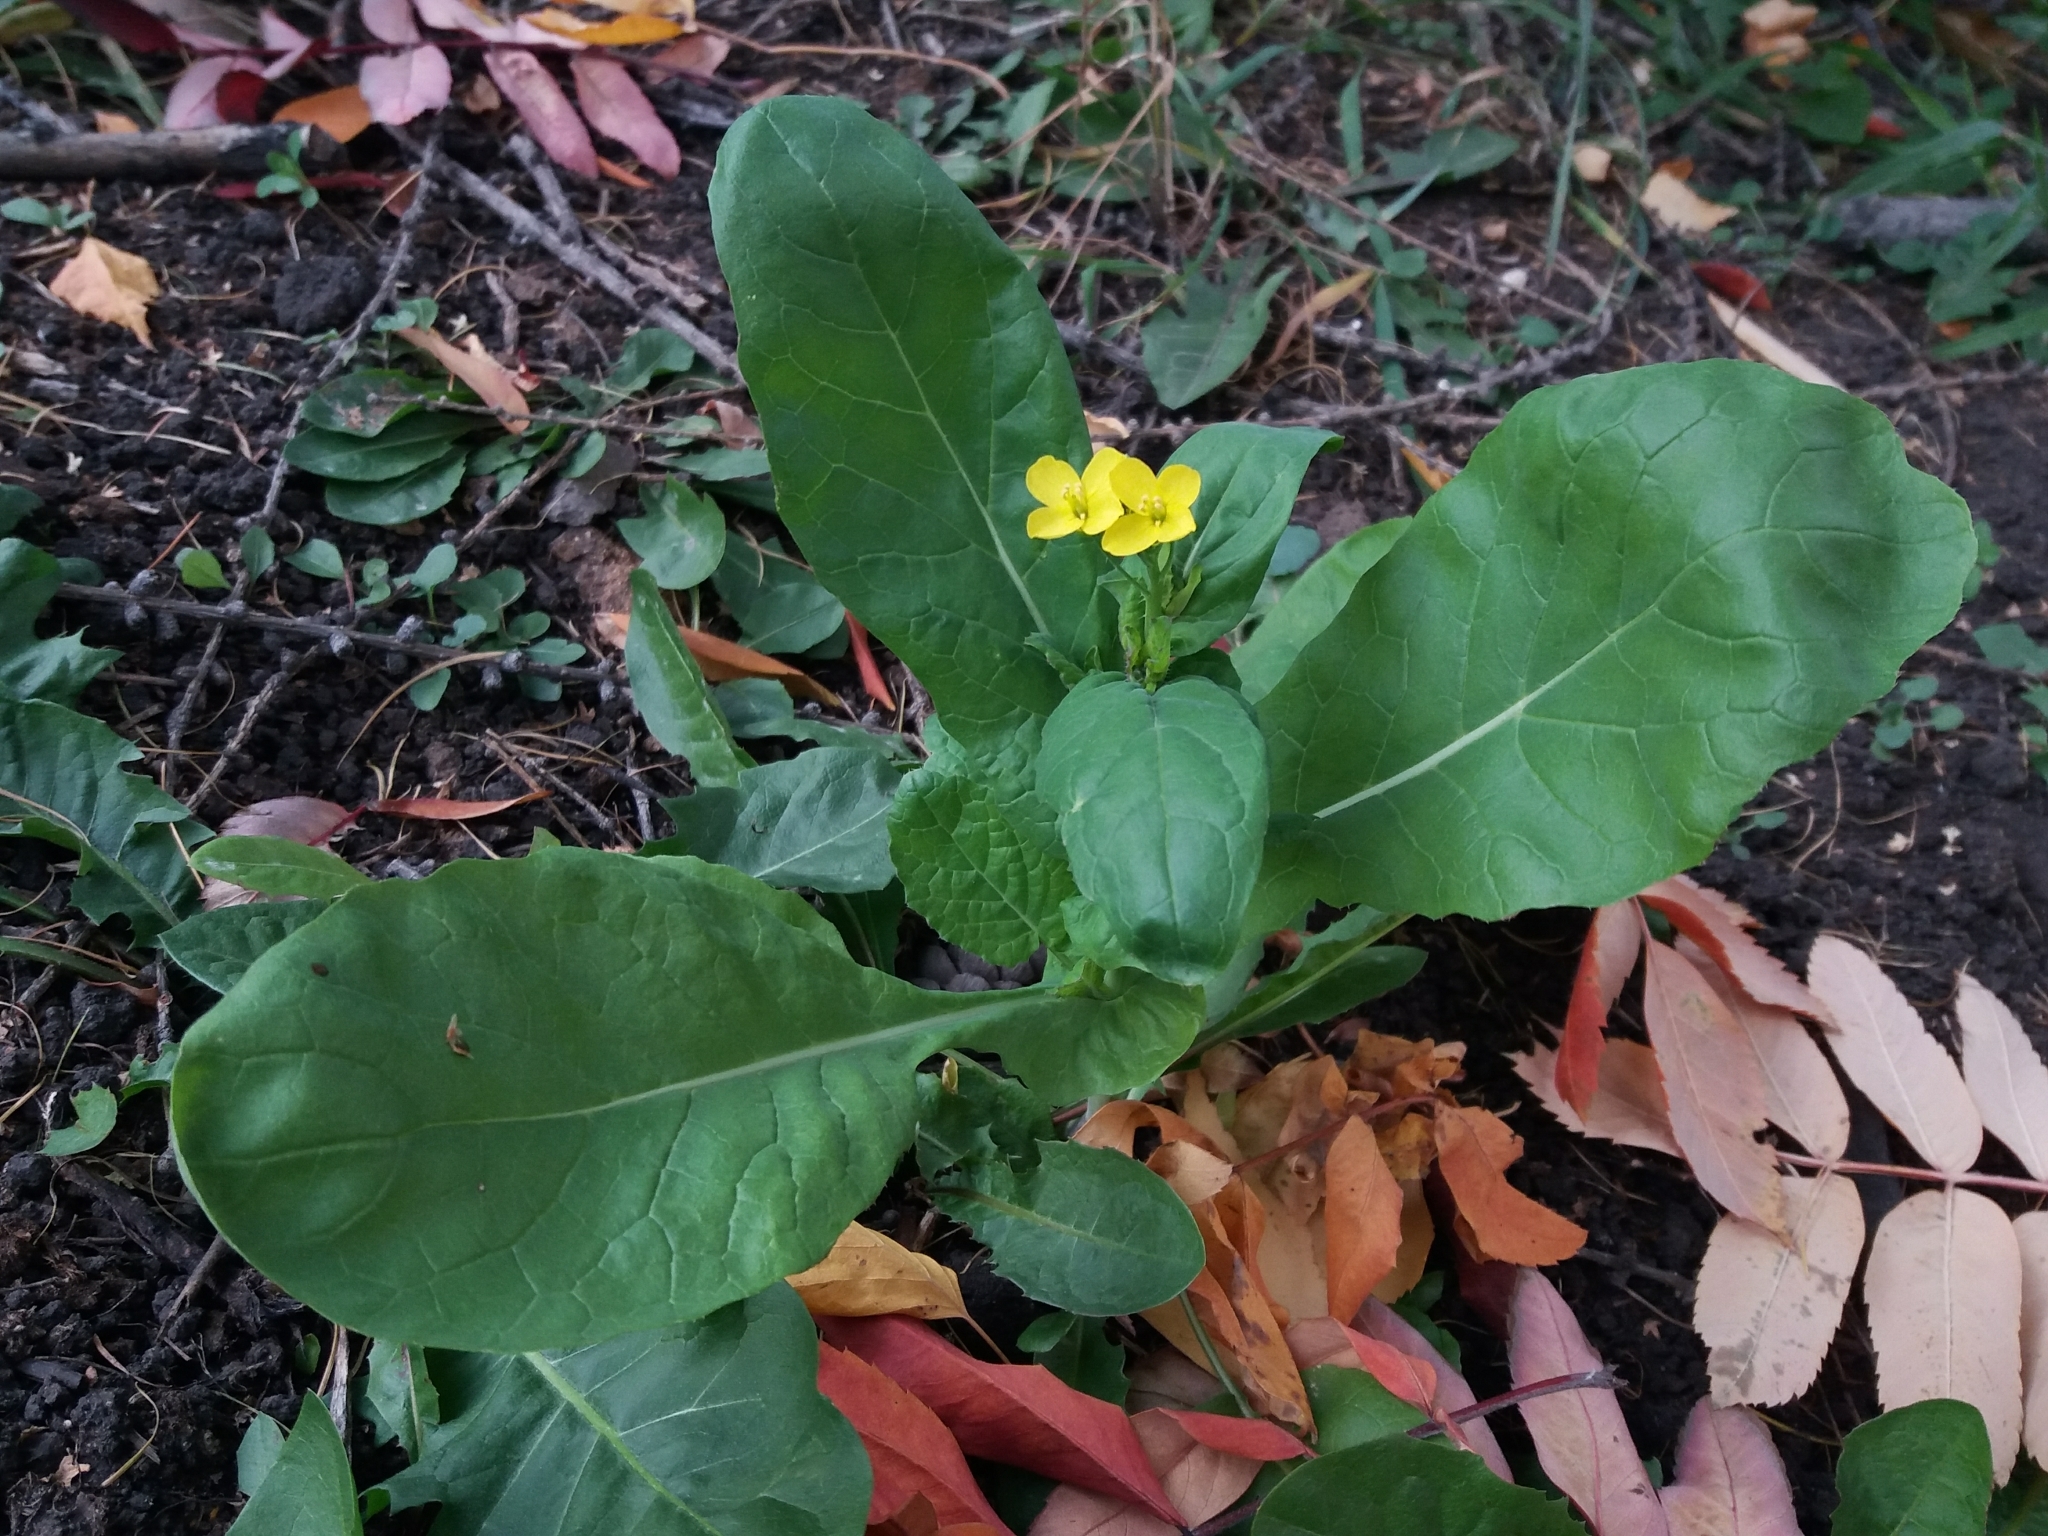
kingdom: Plantae
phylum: Tracheophyta
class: Magnoliopsida
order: Brassicales
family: Brassicaceae
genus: Brassica
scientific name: Brassica napus
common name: Rape
